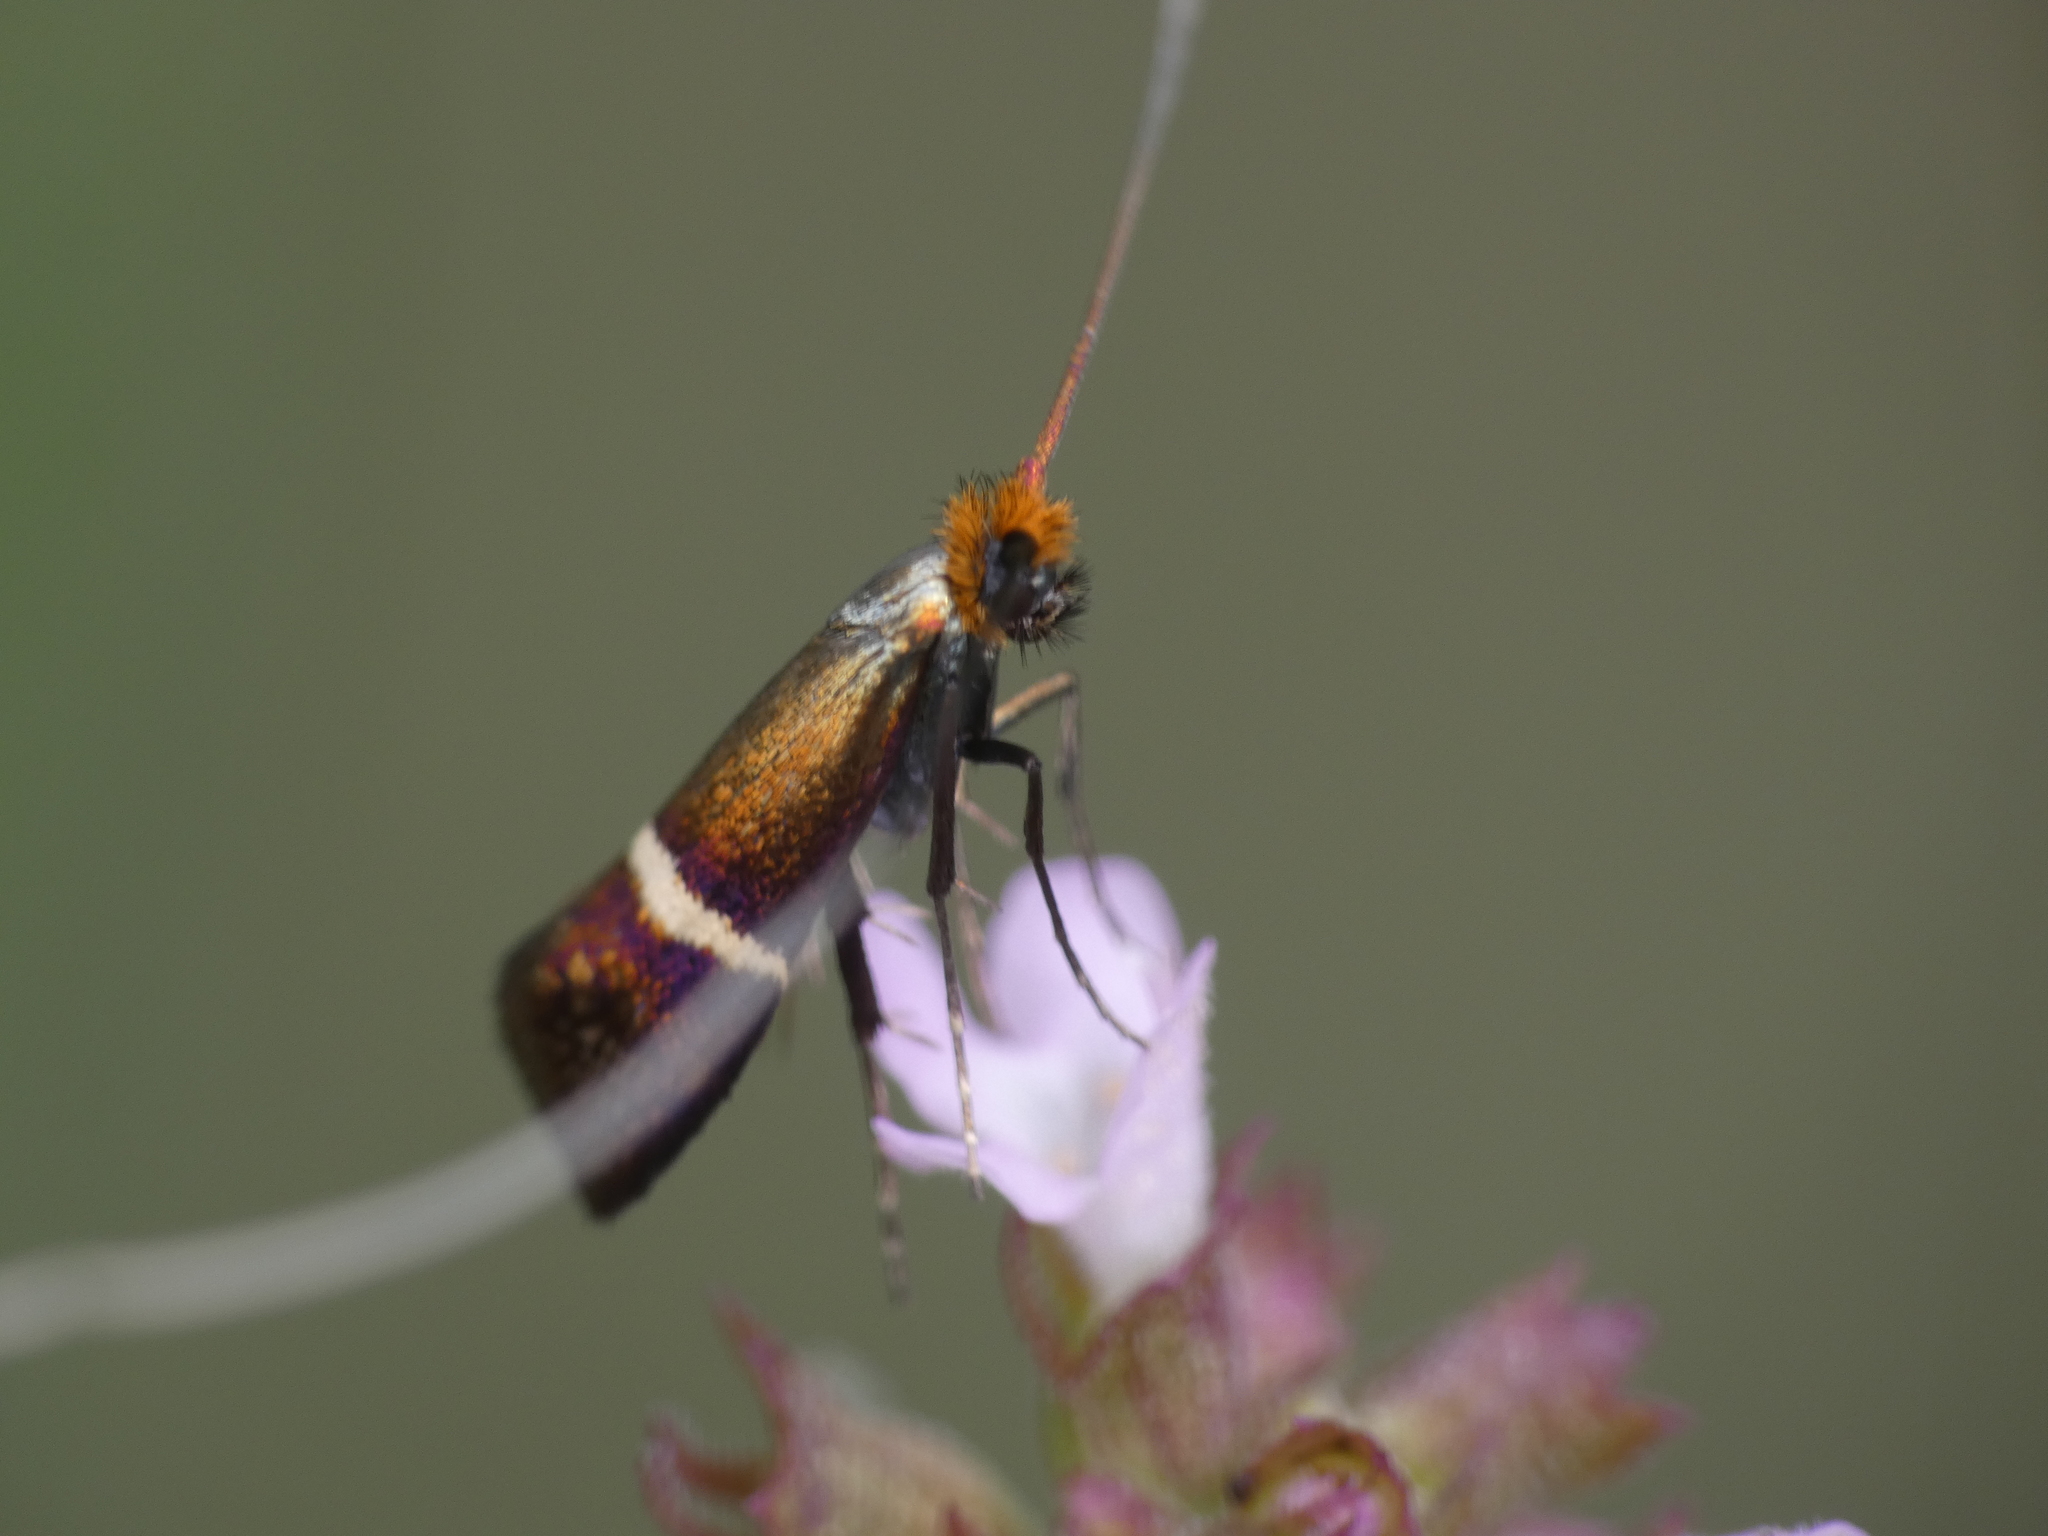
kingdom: Animalia
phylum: Arthropoda
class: Insecta
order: Lepidoptera
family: Adelidae
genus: Adela
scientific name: Adela australis
